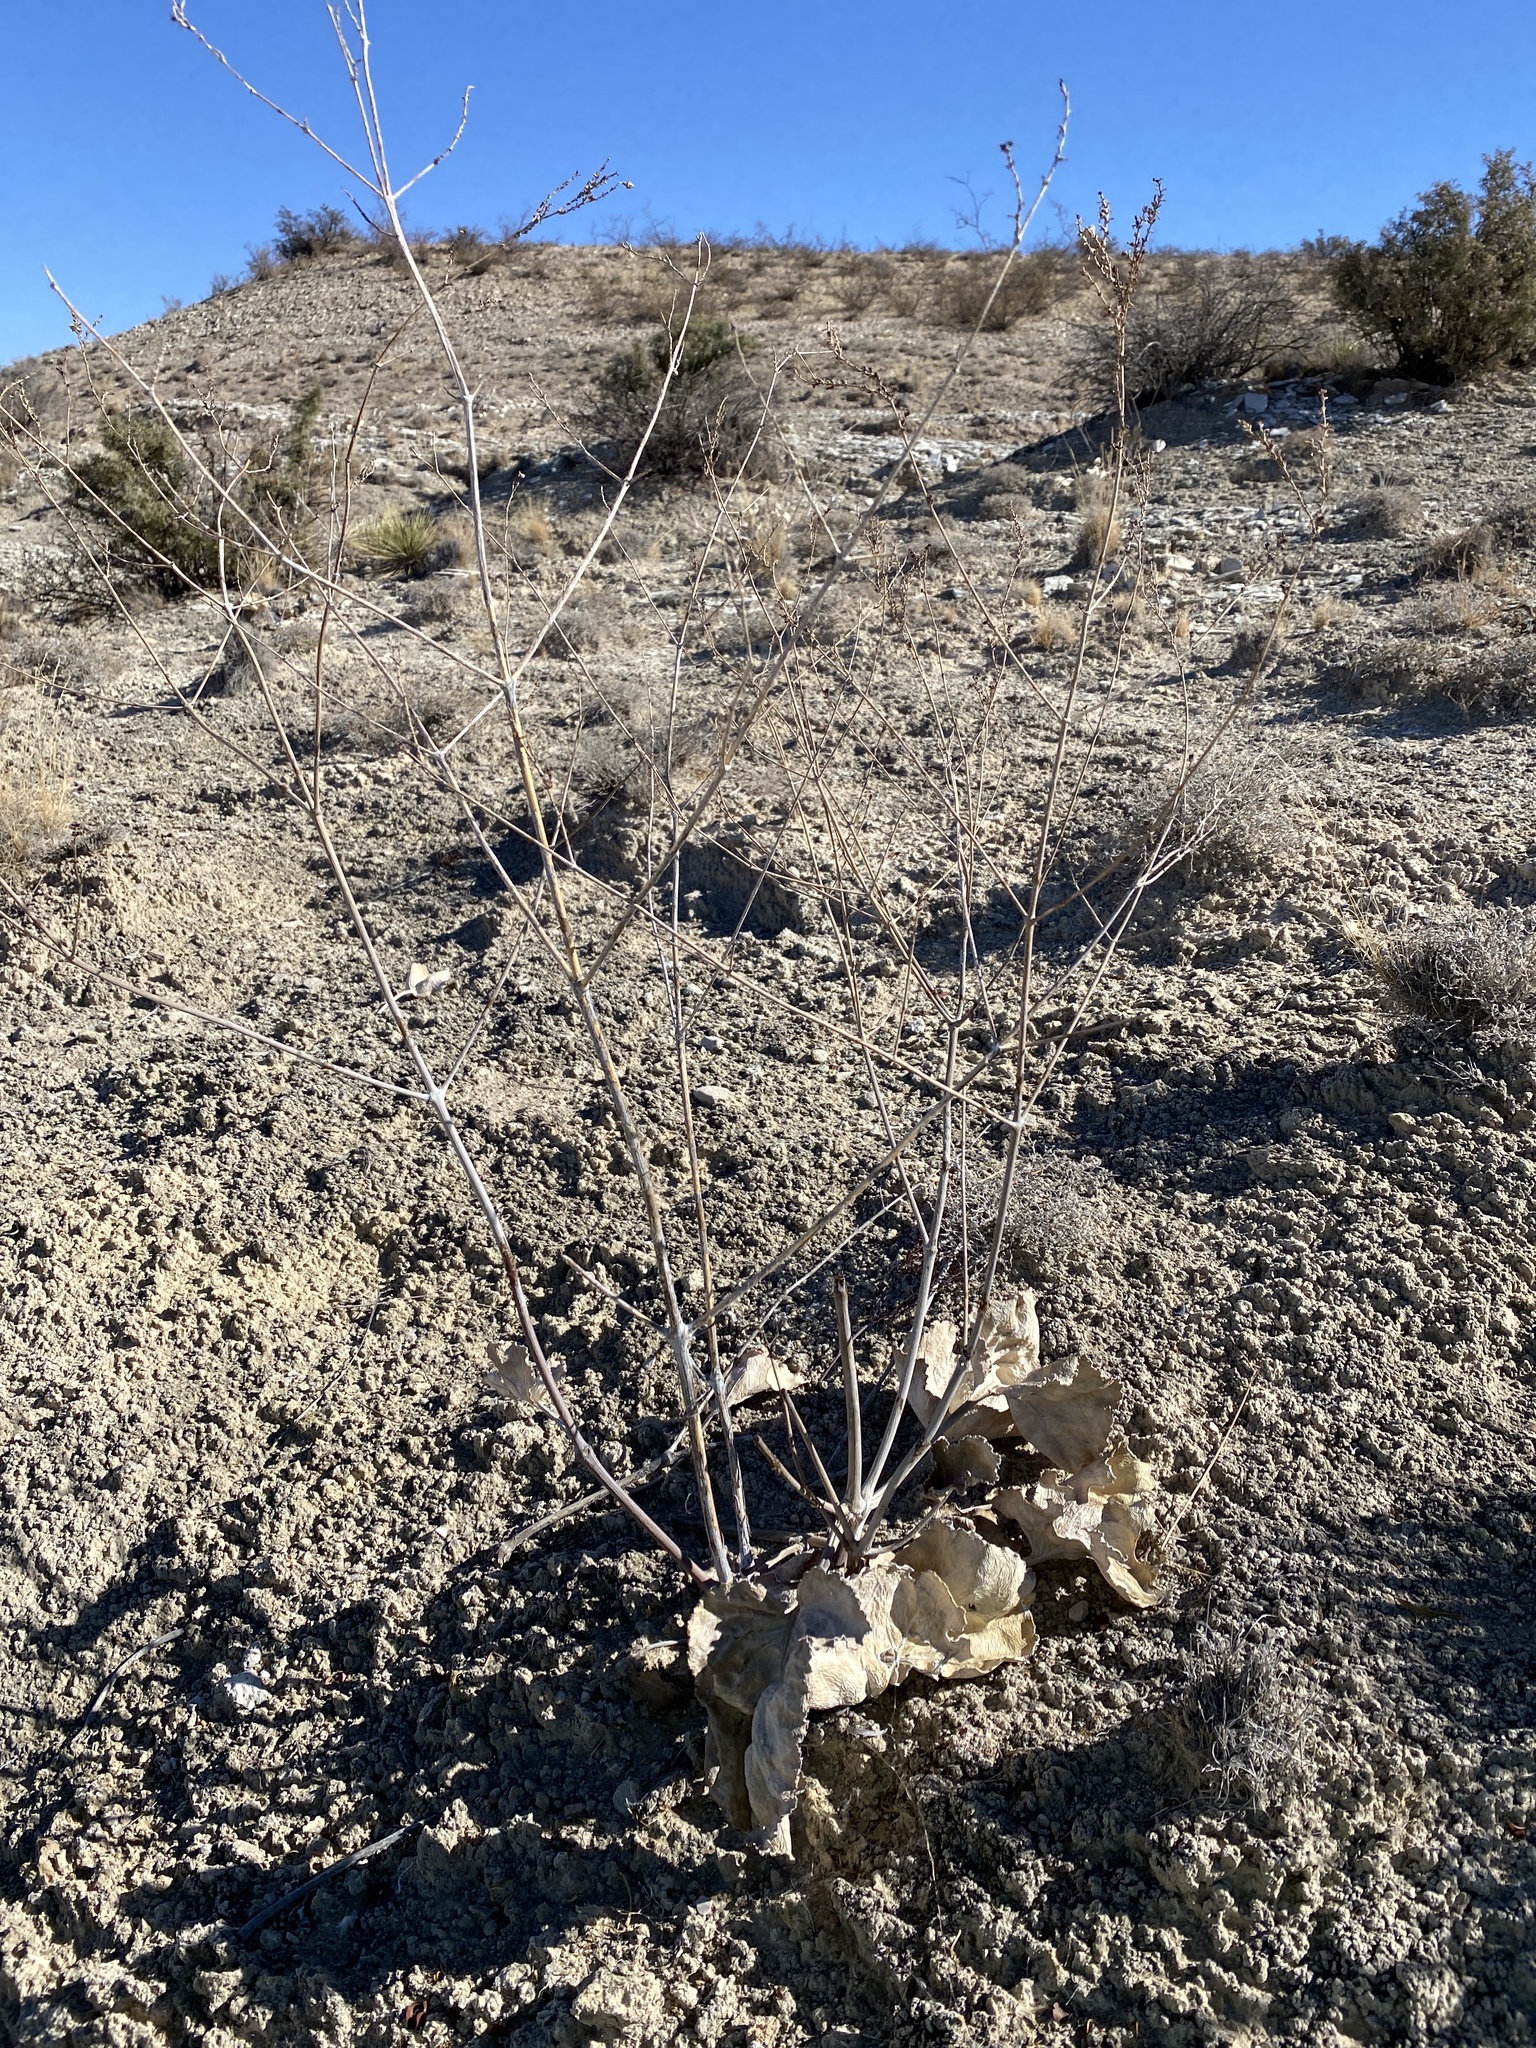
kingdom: Plantae
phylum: Tracheophyta
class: Magnoliopsida
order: Caryophyllales
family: Nyctaginaceae
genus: Anulocaulis
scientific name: Anulocaulis leiosolenus
